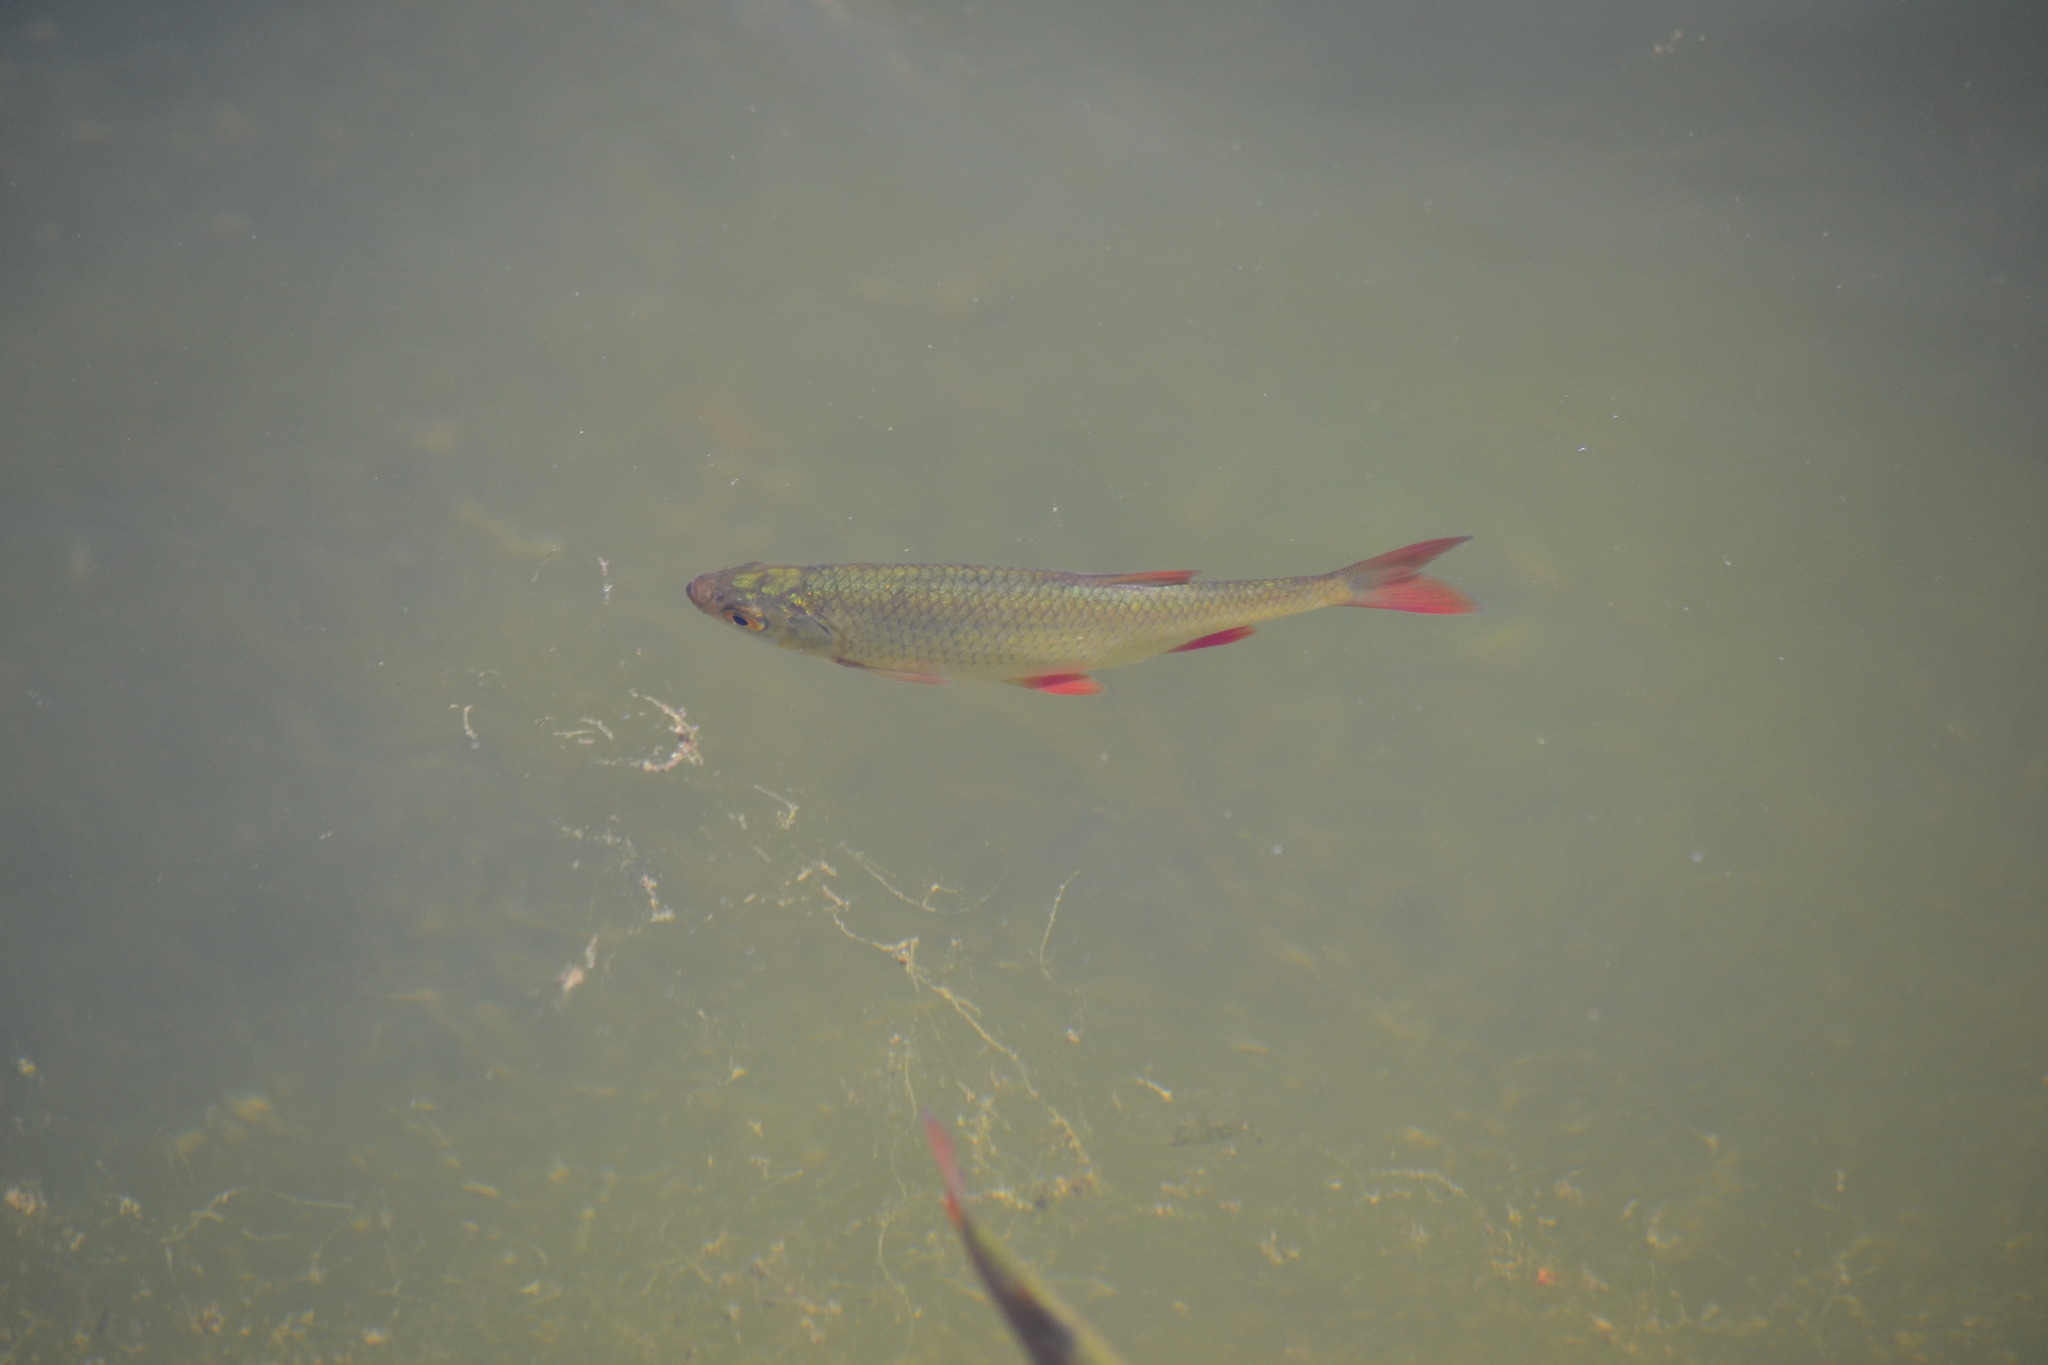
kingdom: Animalia
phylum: Chordata
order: Cypriniformes
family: Cyprinidae
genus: Scardinius
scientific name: Scardinius erythrophthalmus
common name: Rudd
